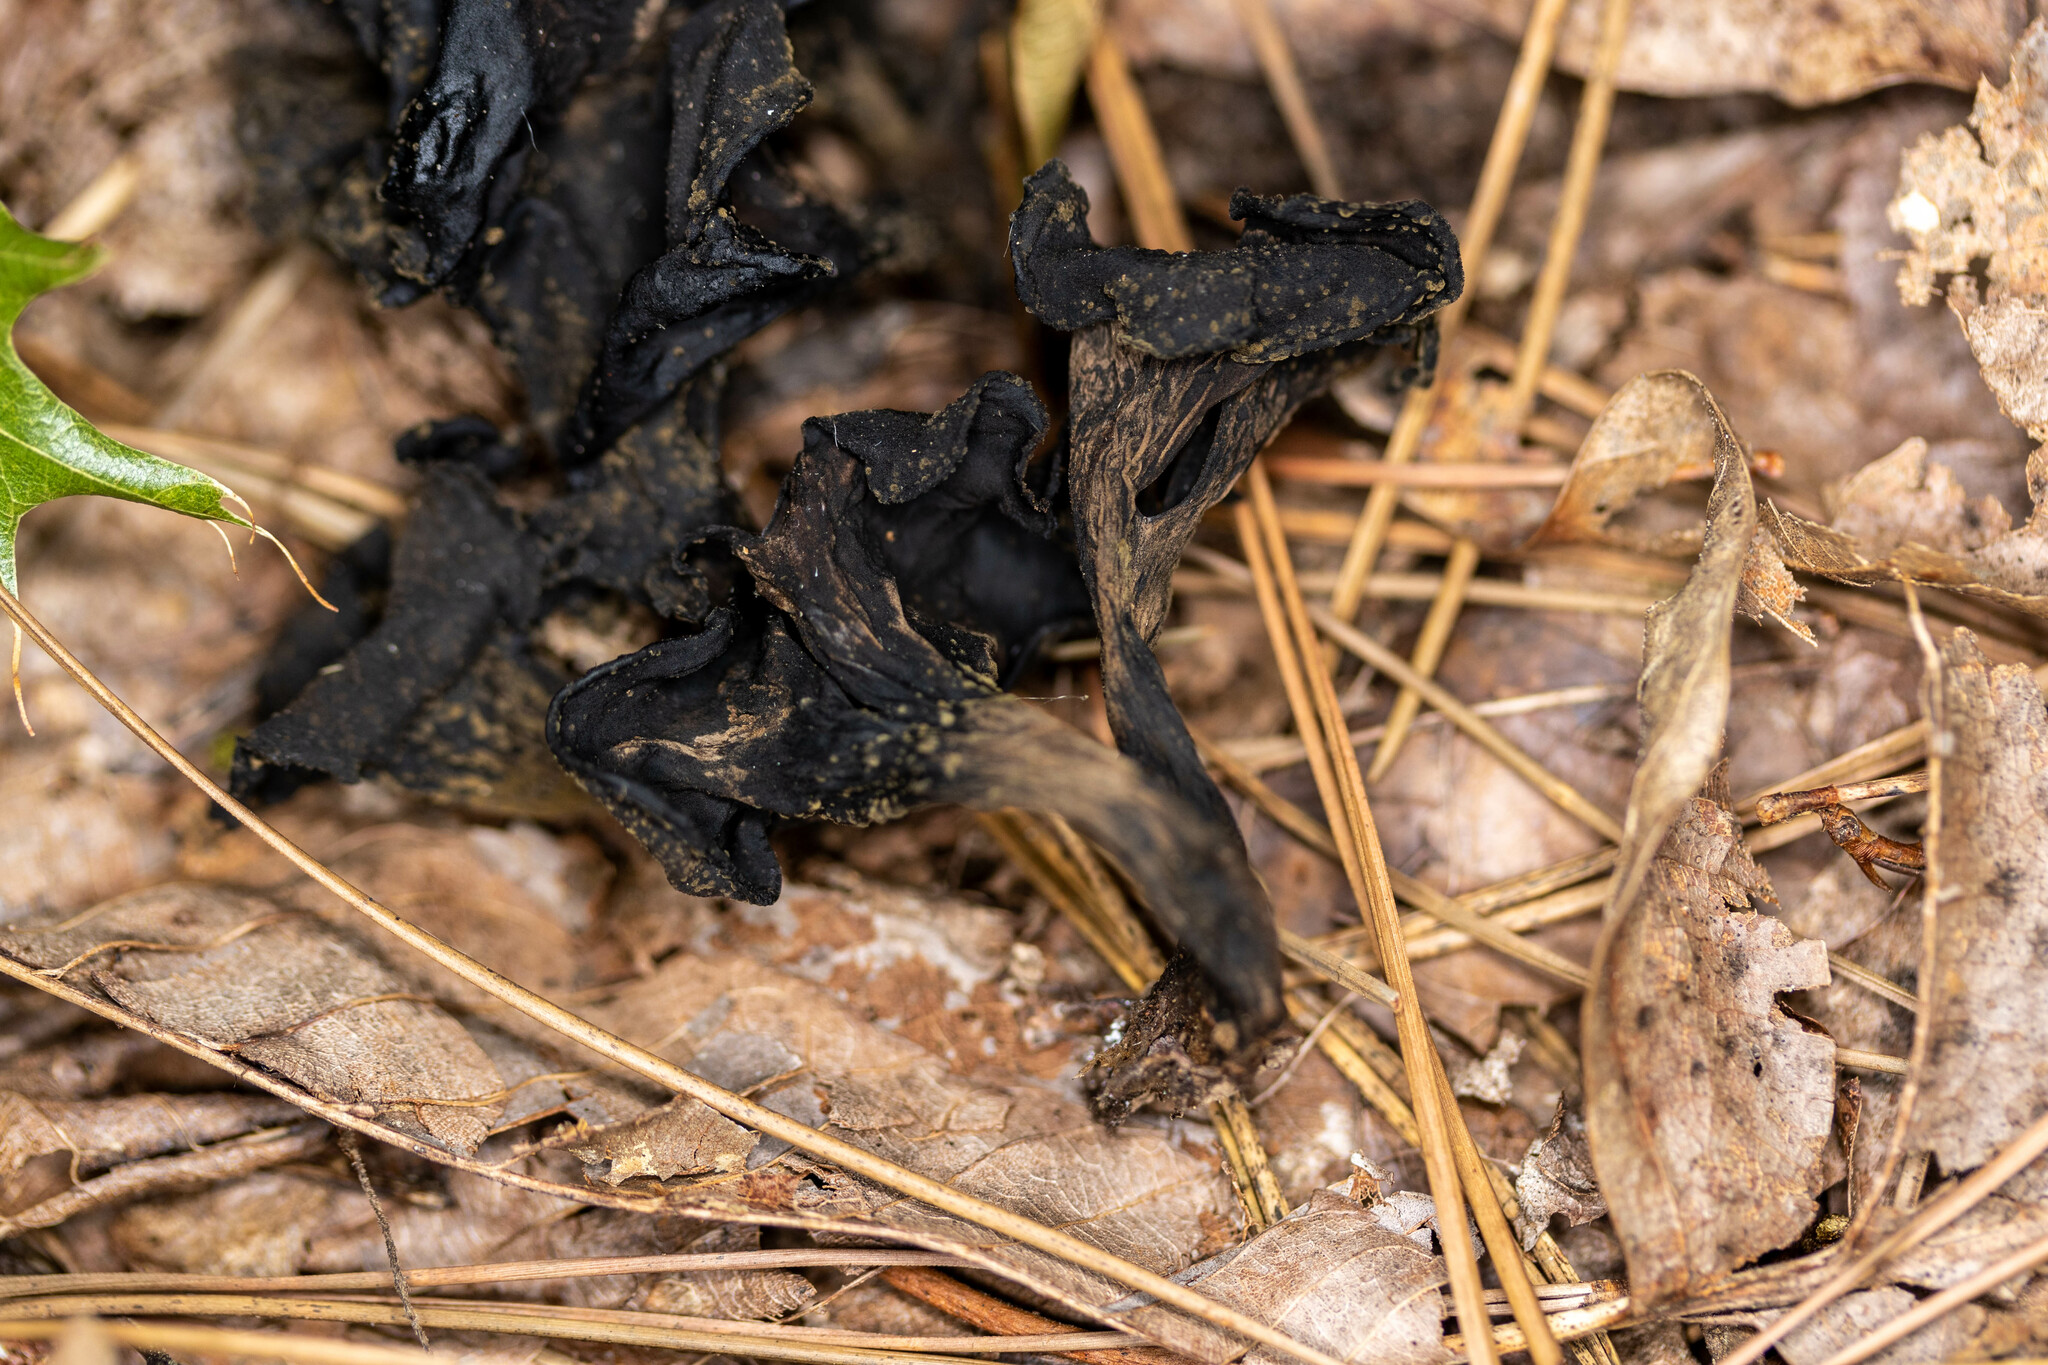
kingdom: Fungi
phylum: Basidiomycota
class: Agaricomycetes
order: Cantharellales
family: Hydnaceae
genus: Craterellus
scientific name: Craterellus cornucopioides
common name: Horn of plenty
